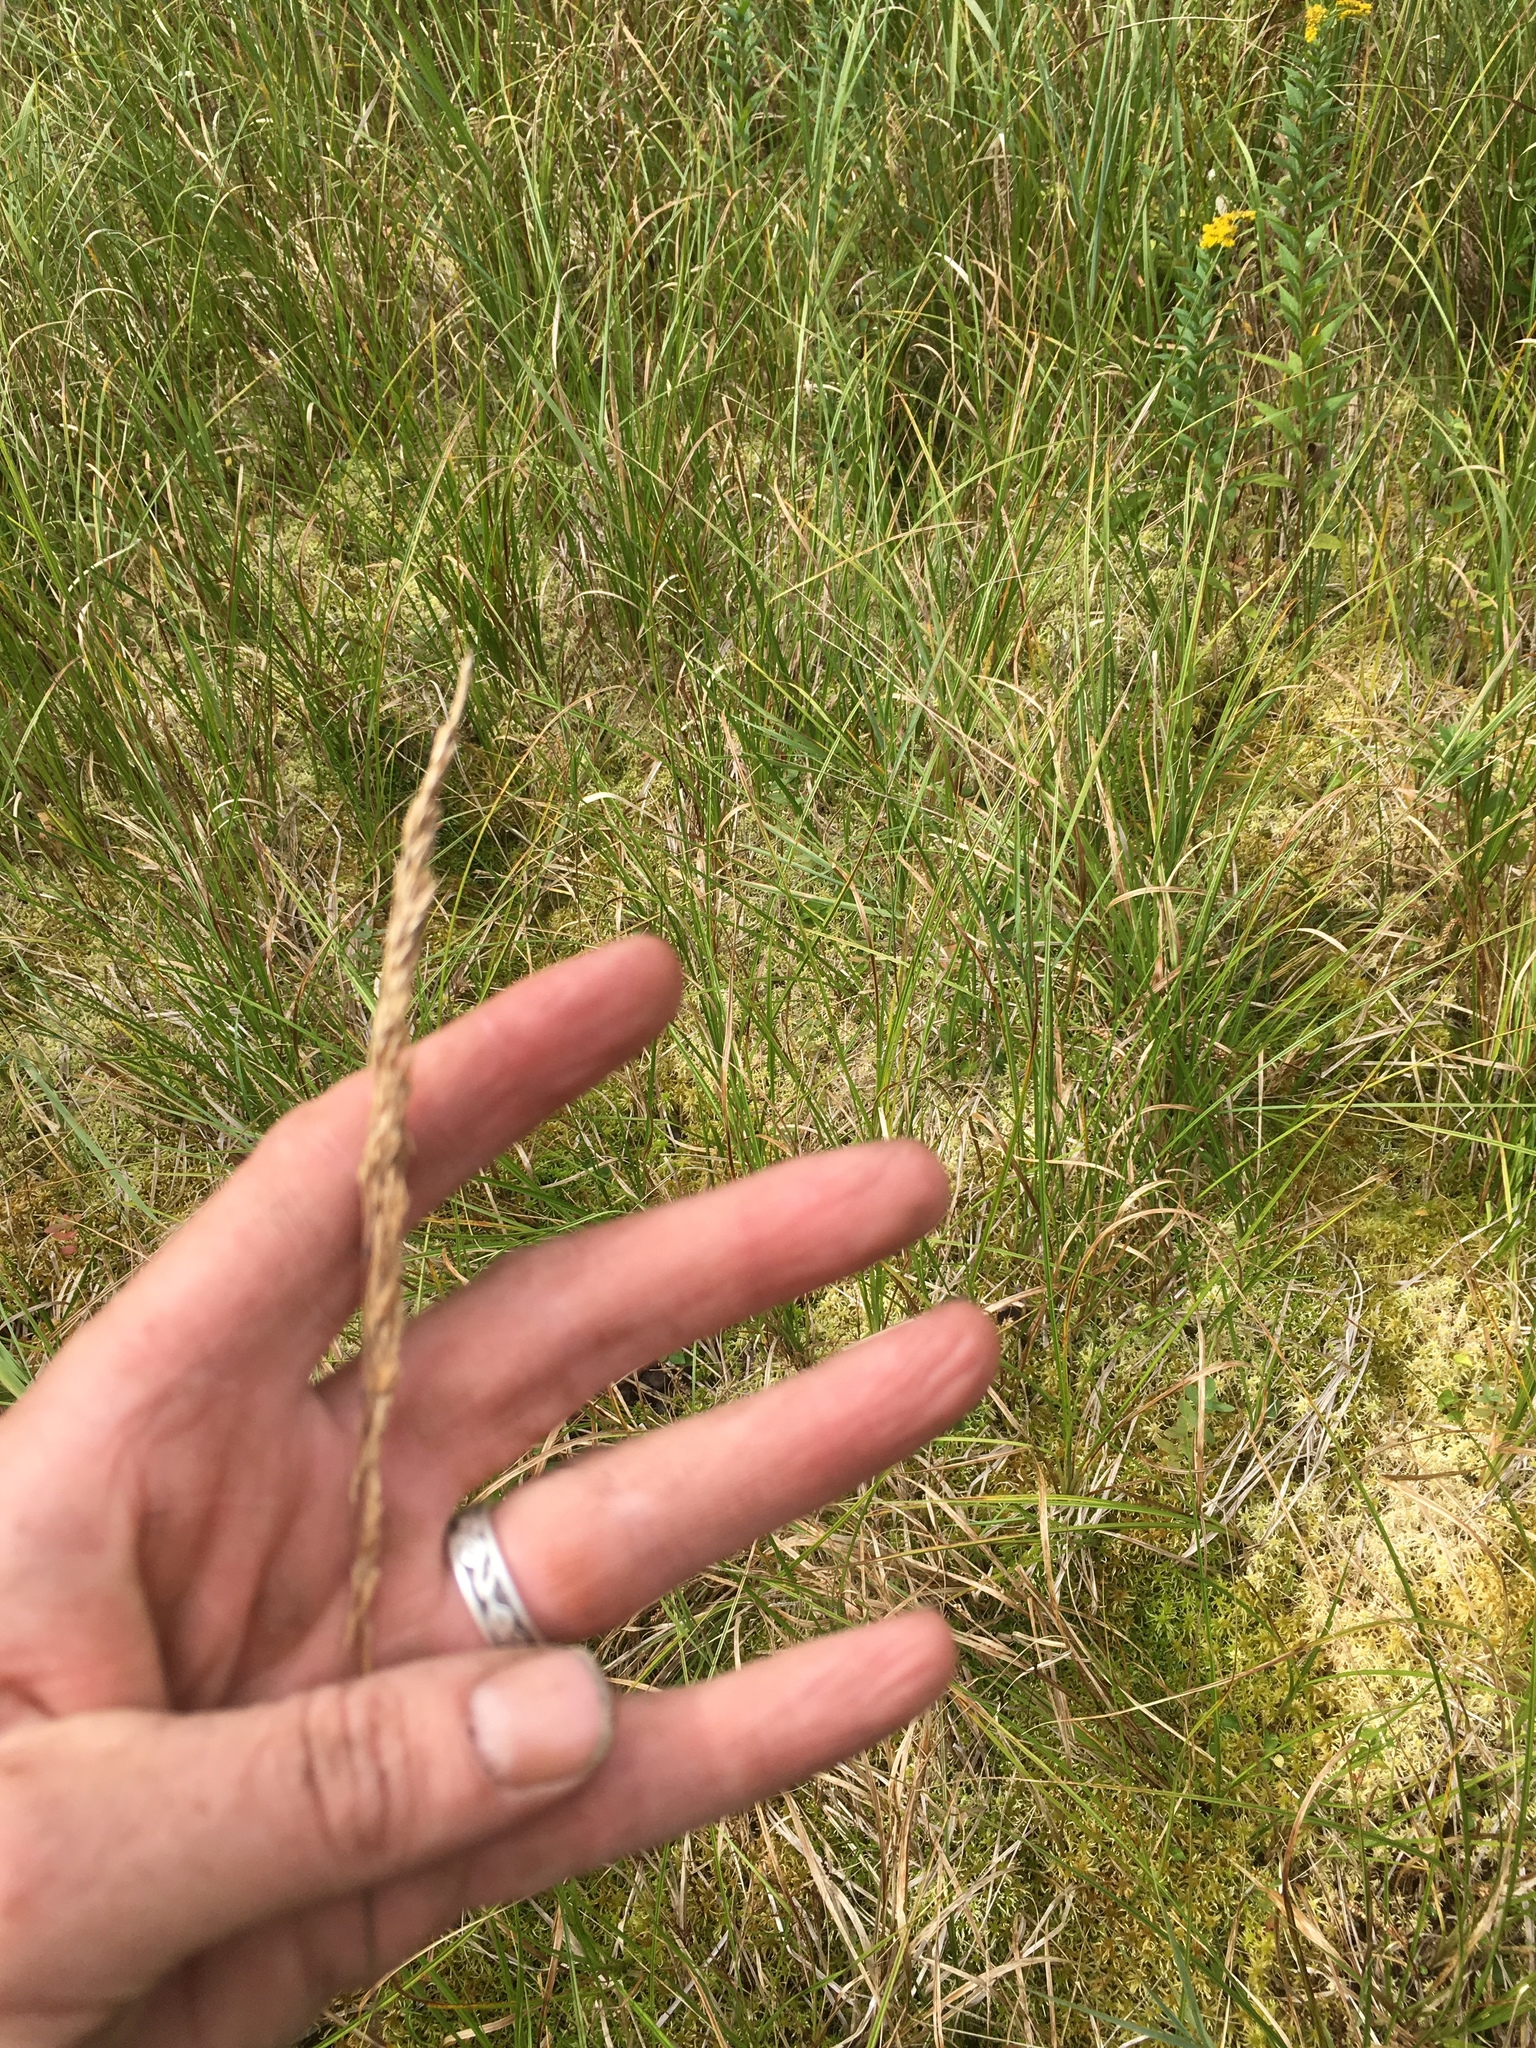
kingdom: Plantae
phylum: Tracheophyta
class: Liliopsida
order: Poales
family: Poaceae
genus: Phalaris
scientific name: Phalaris arundinacea
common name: Reed canary-grass
